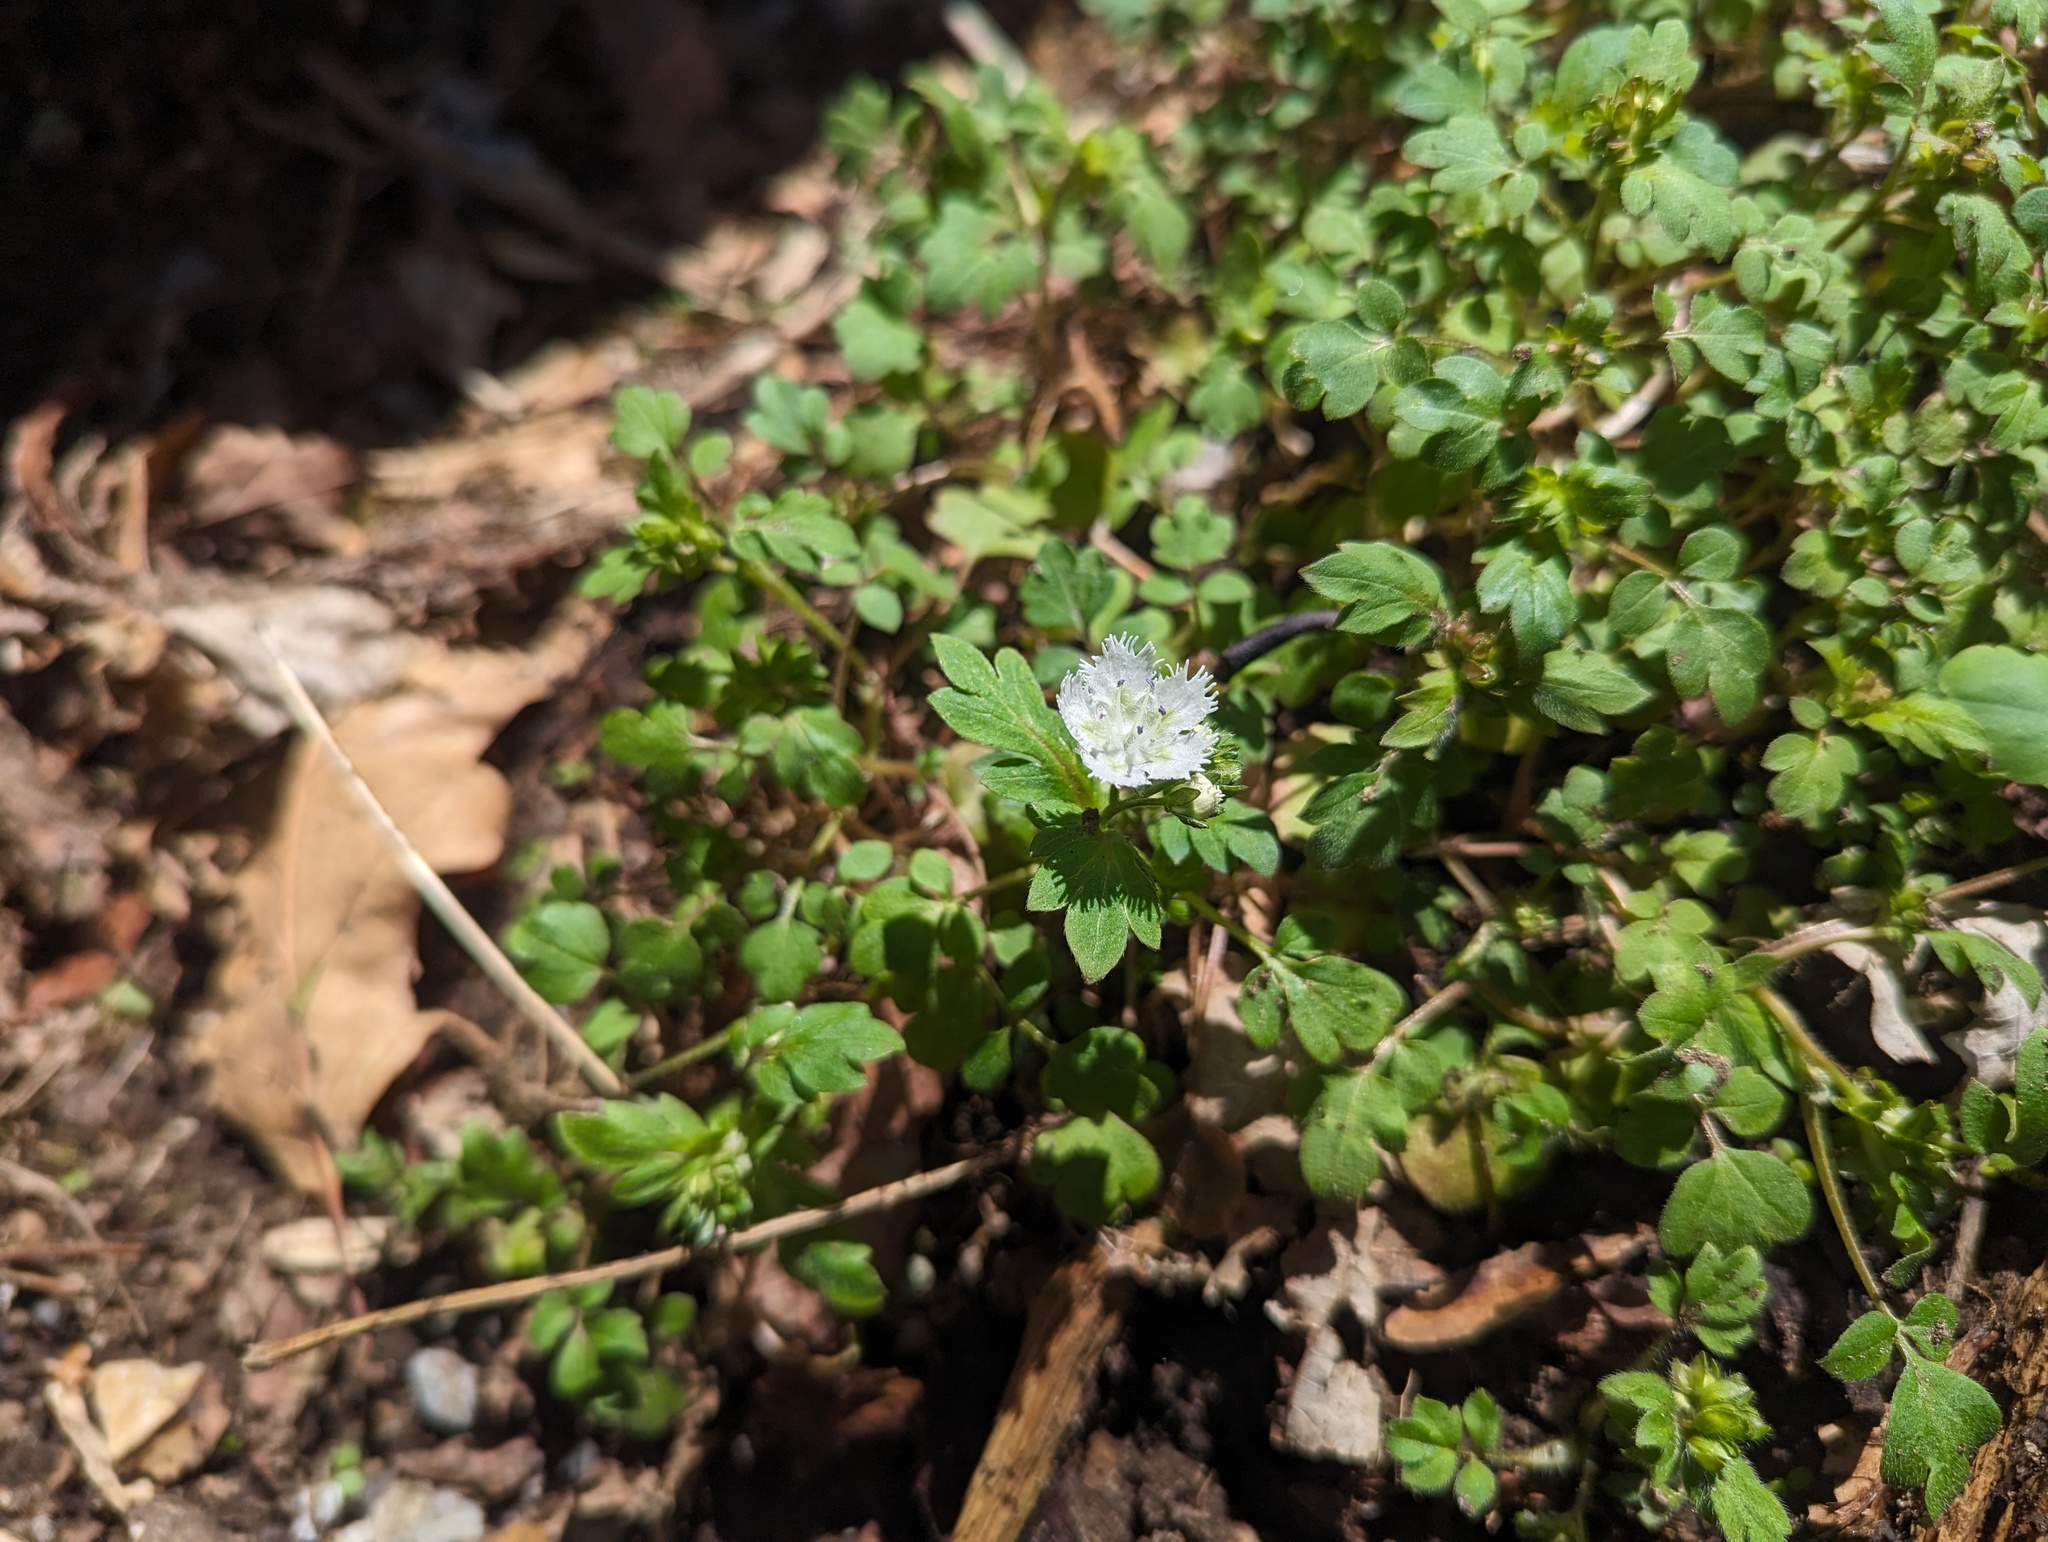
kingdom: Plantae
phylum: Tracheophyta
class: Magnoliopsida
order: Boraginales
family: Hydrophyllaceae
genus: Phacelia
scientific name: Phacelia fimbriata
